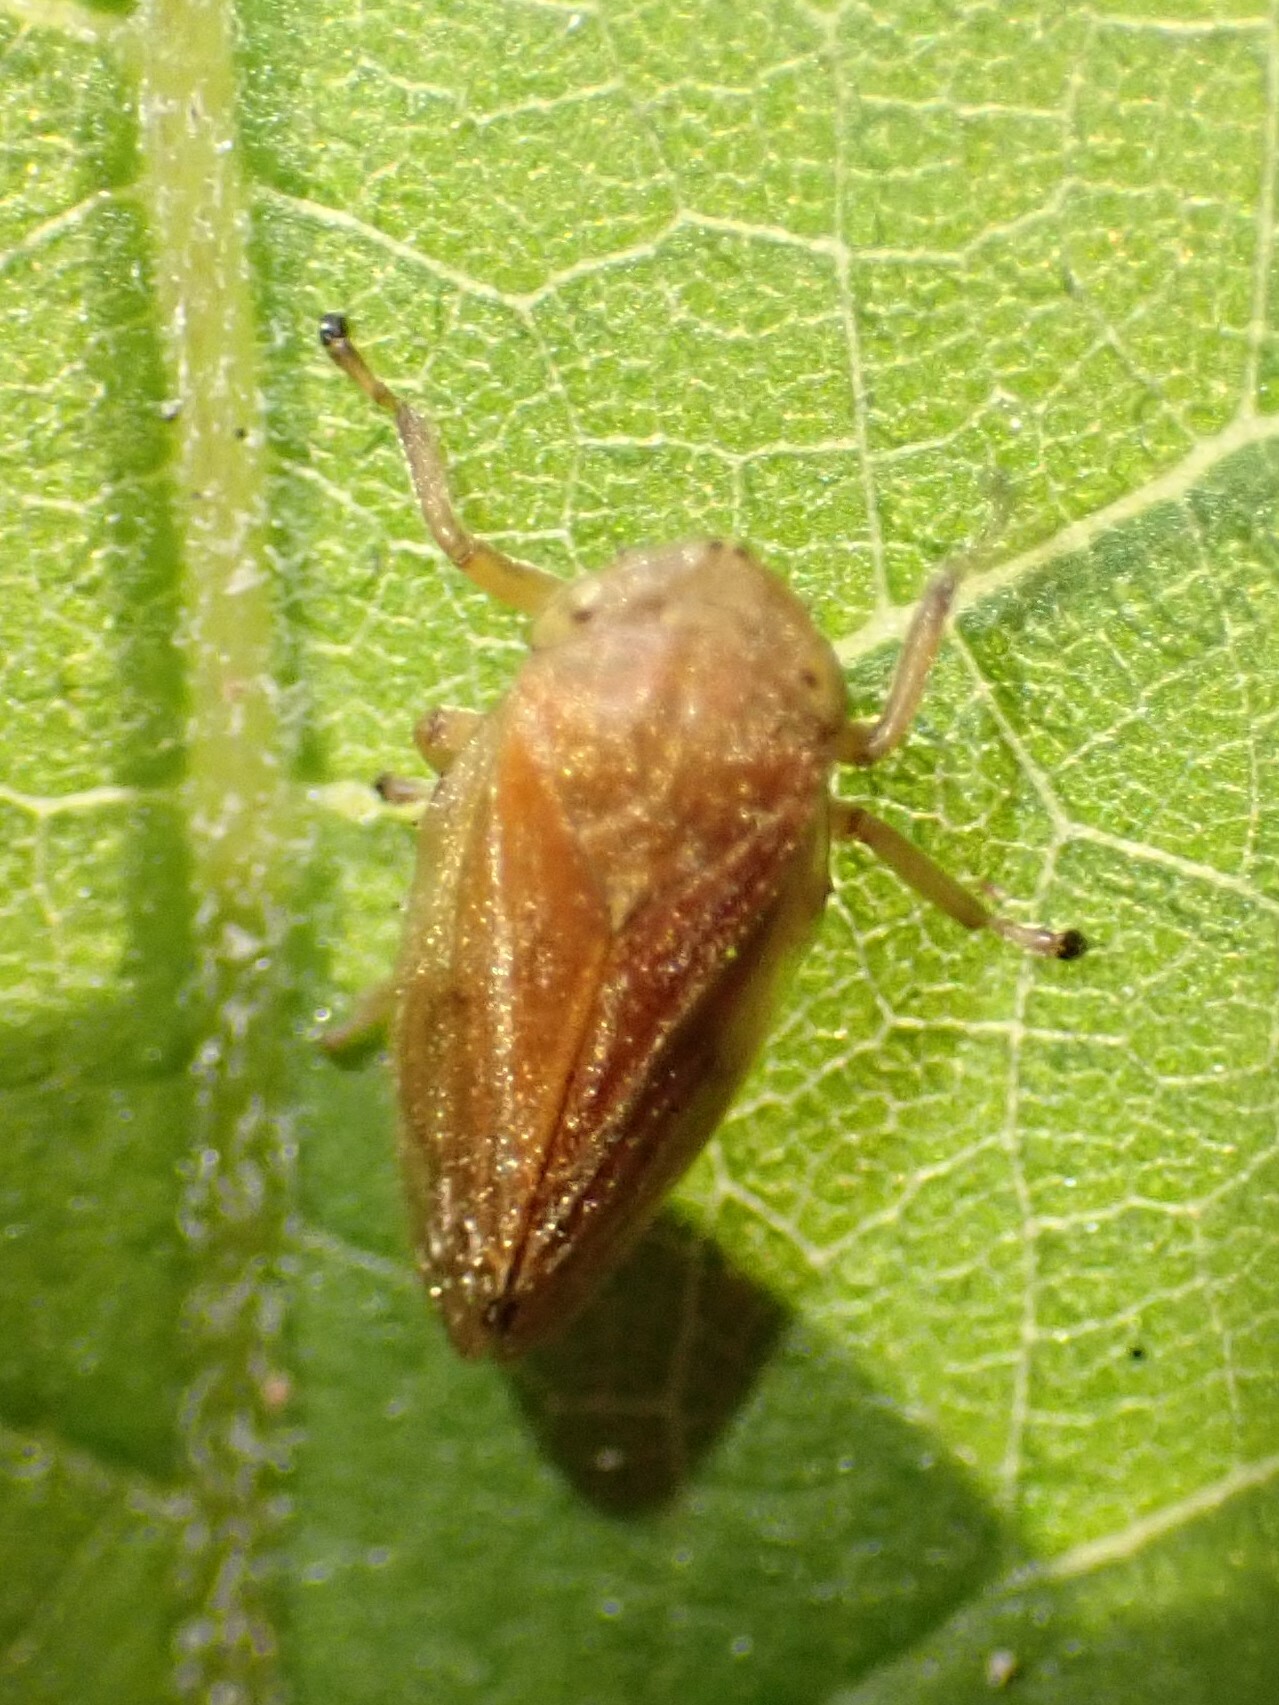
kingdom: Animalia
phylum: Arthropoda
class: Insecta
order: Hemiptera
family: Aphrophoridae
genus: Philaenus
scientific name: Philaenus spumarius
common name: Meadow spittlebug
